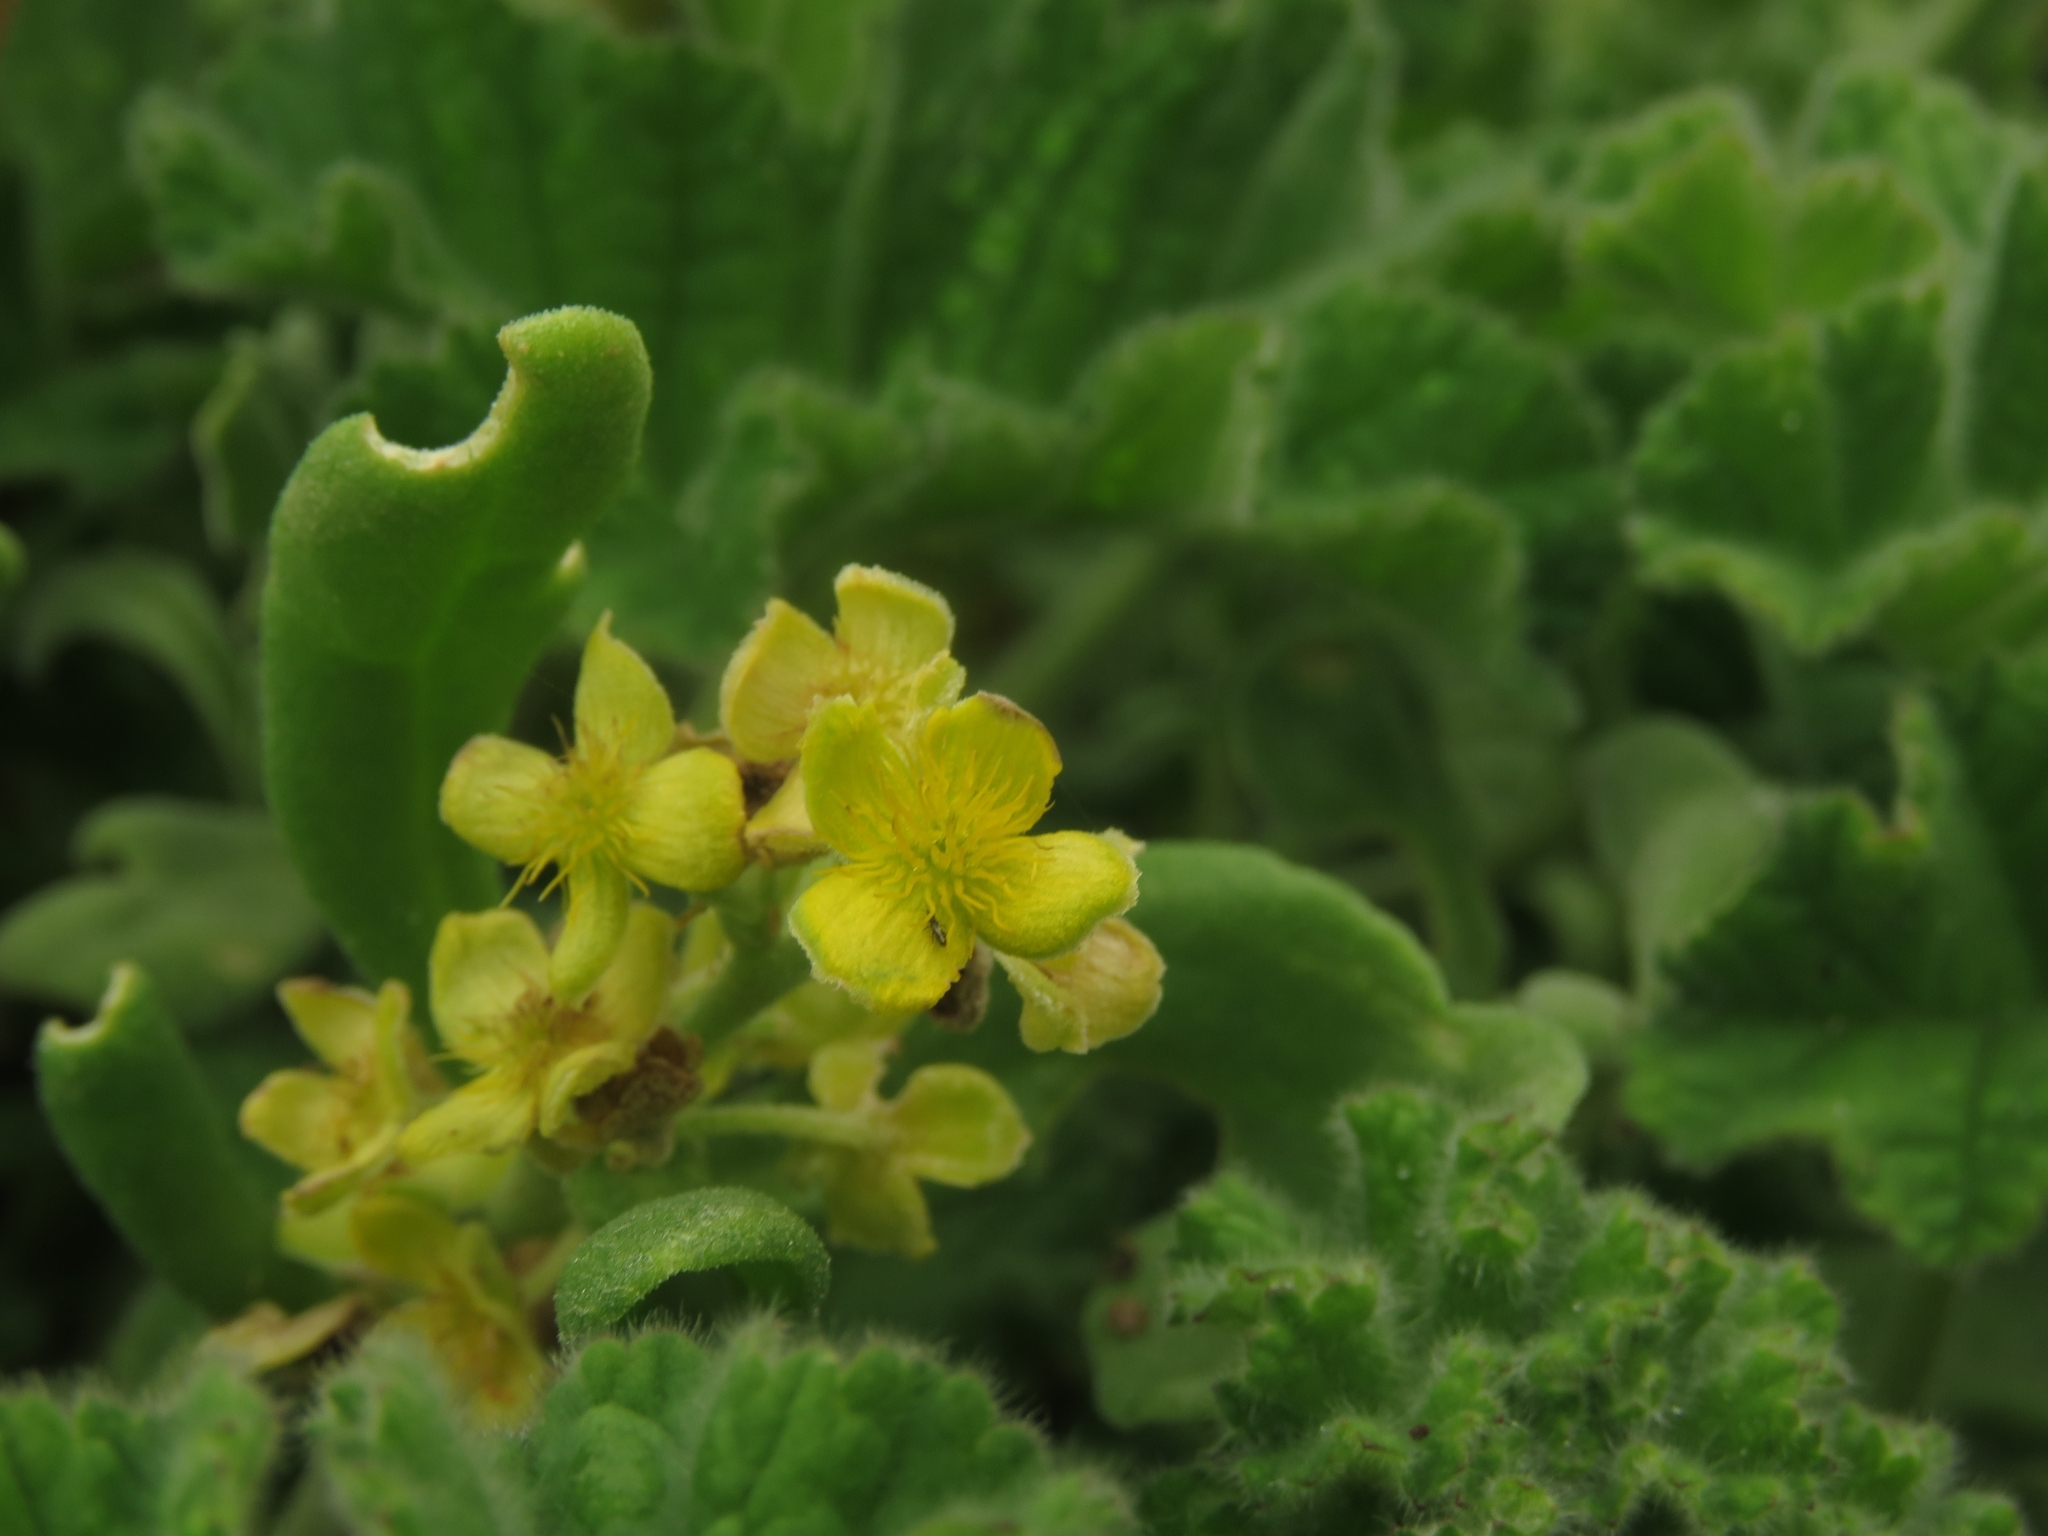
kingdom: Plantae
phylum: Tracheophyta
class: Magnoliopsida
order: Caryophyllales
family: Aizoaceae
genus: Tetragonia
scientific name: Tetragonia decumbens
